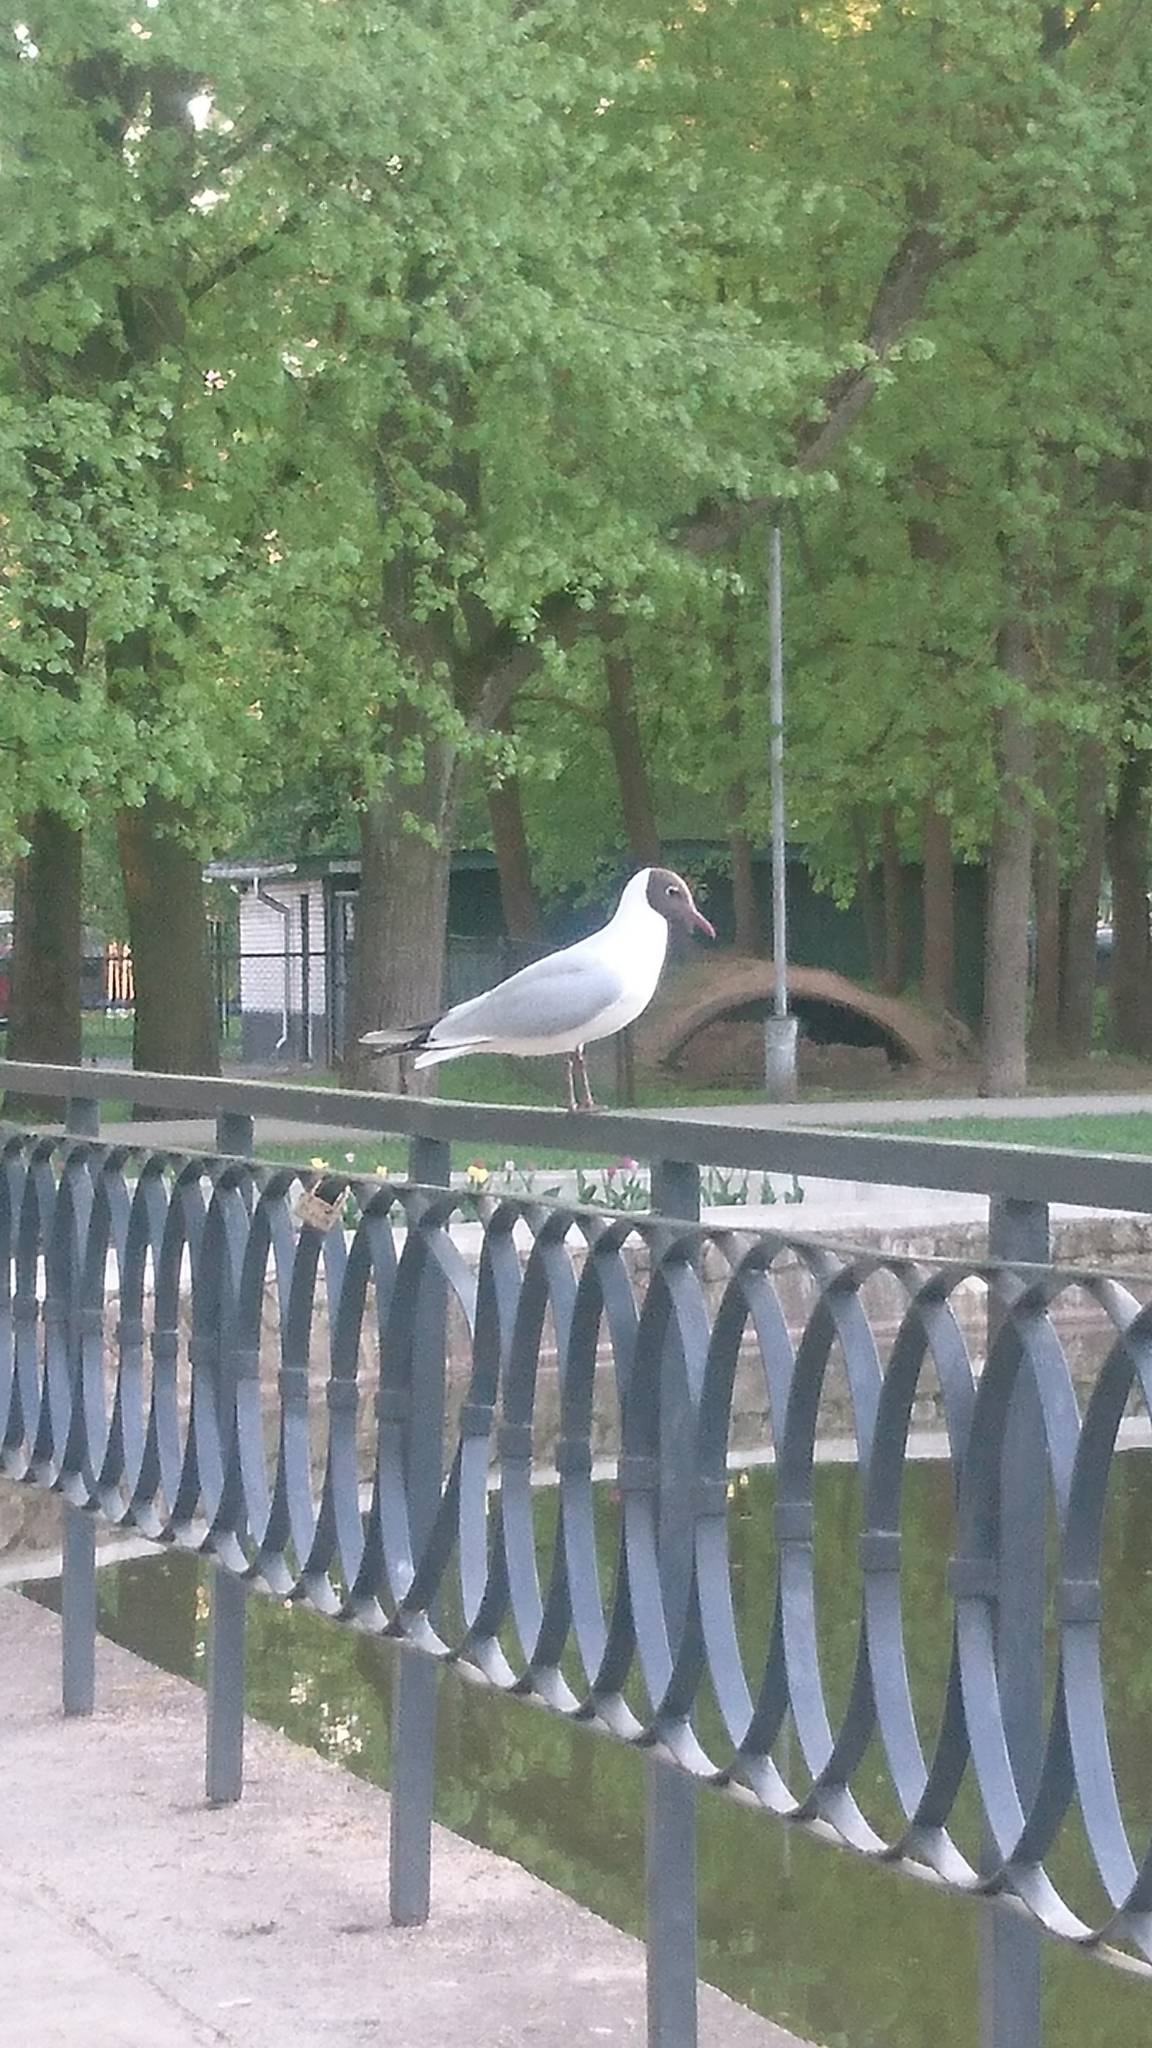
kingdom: Animalia
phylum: Chordata
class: Aves
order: Charadriiformes
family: Laridae
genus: Chroicocephalus
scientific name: Chroicocephalus ridibundus
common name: Black-headed gull
